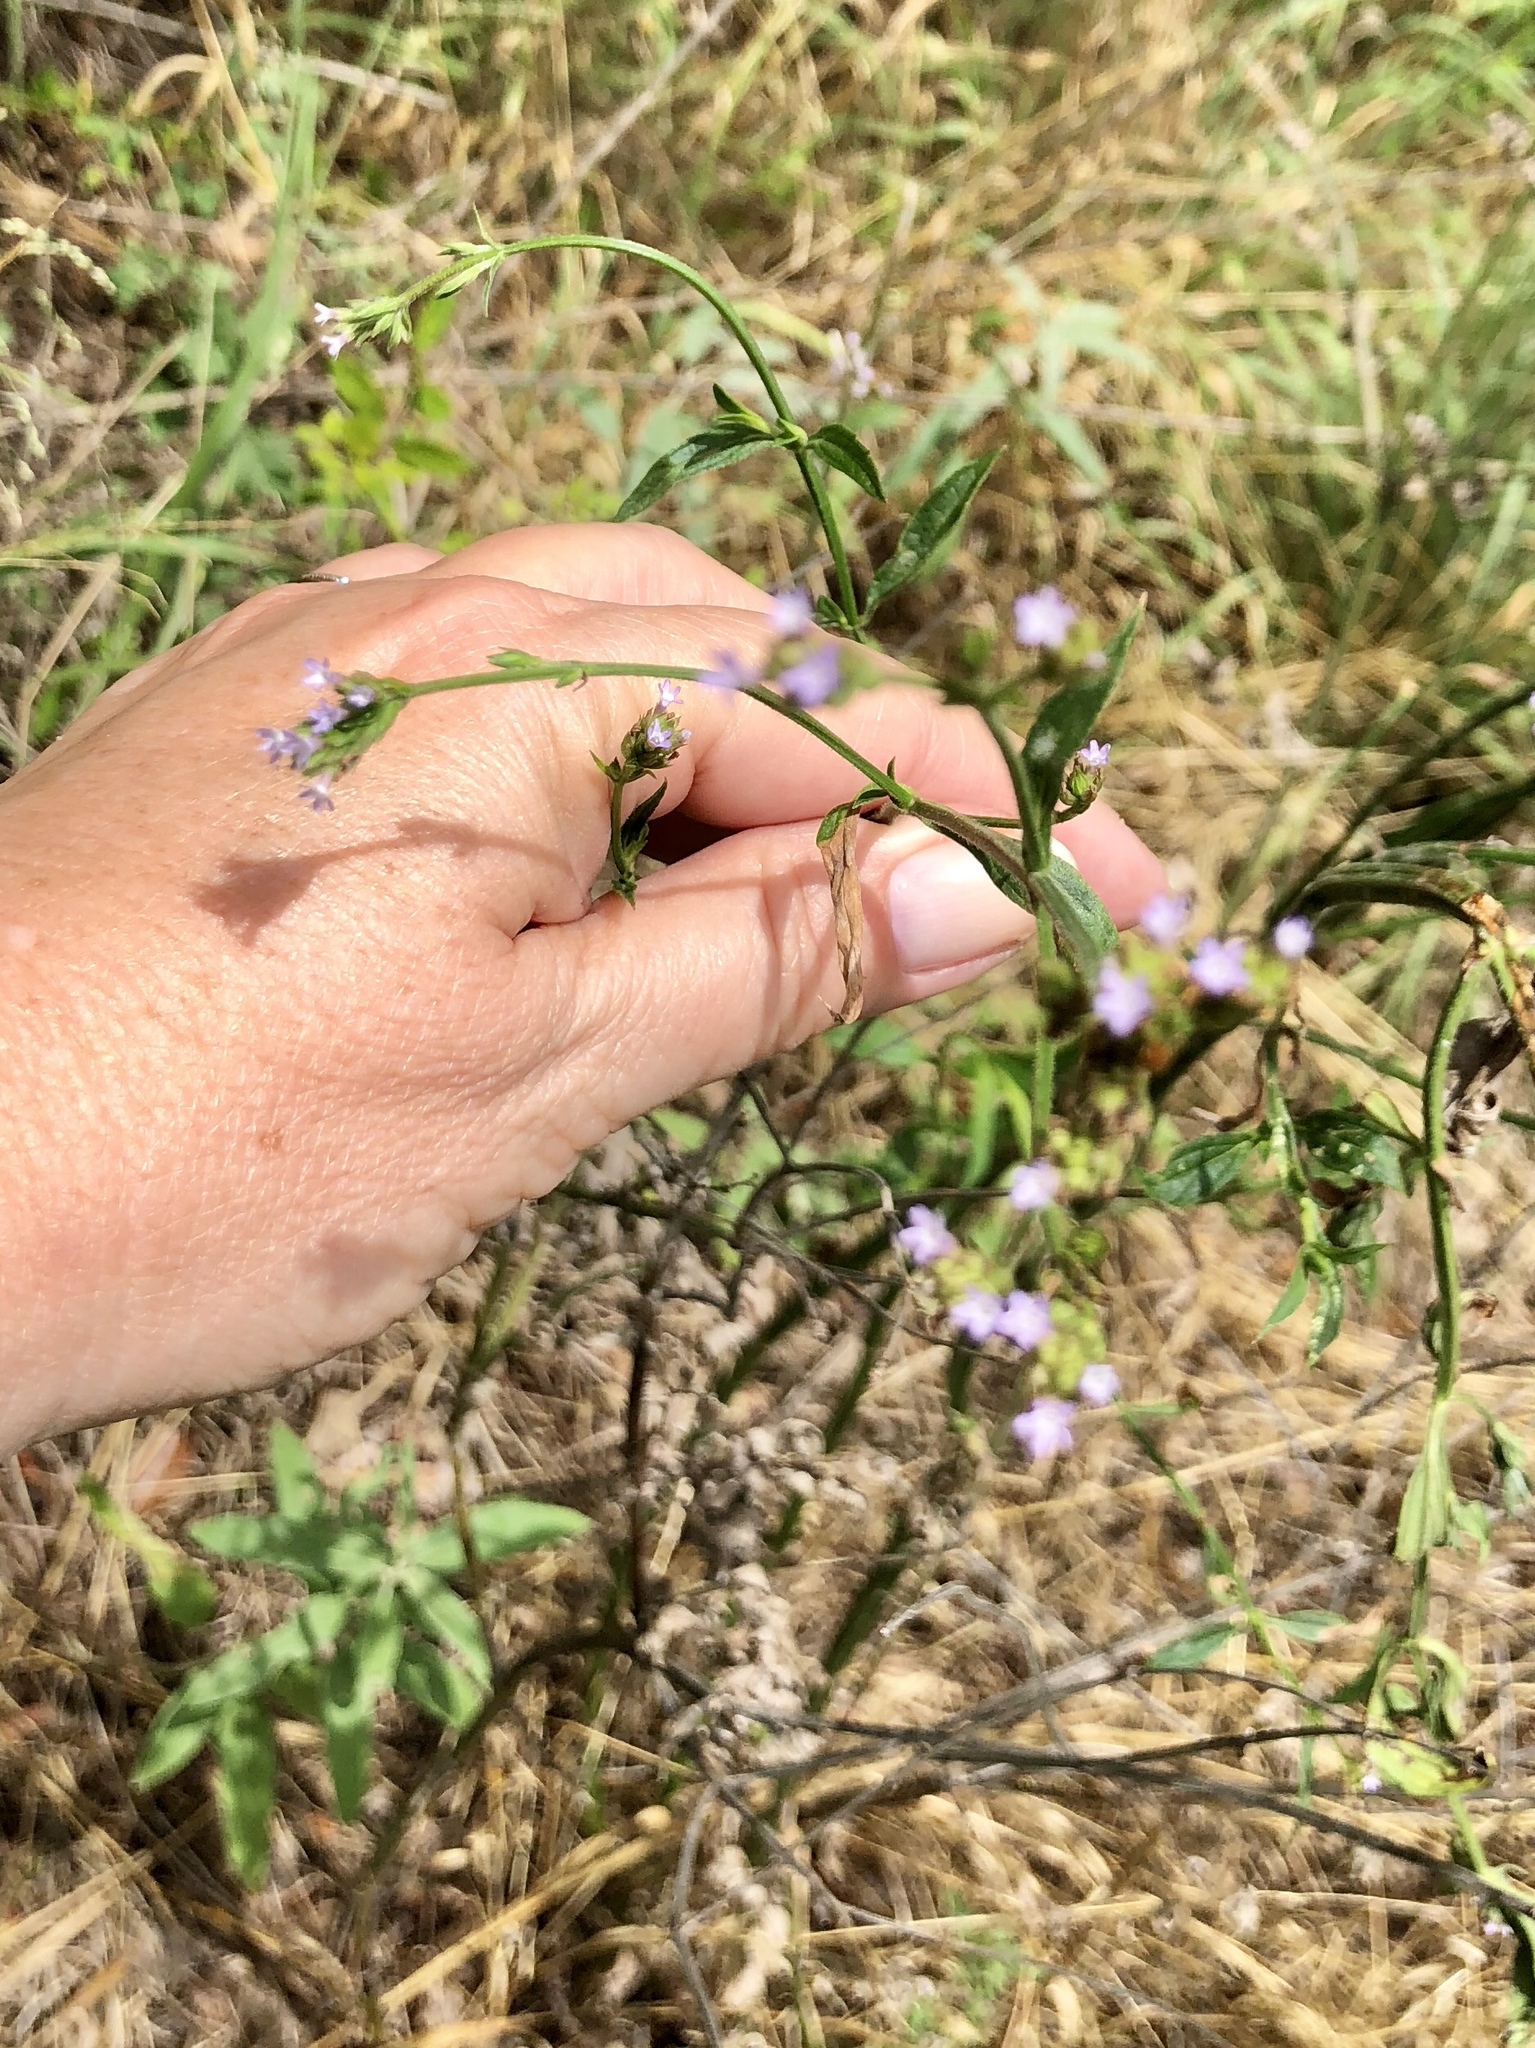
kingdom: Plantae
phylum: Tracheophyta
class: Magnoliopsida
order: Lamiales
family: Verbenaceae
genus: Verbena
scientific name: Verbena brasiliensis
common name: Brazilian vervain
